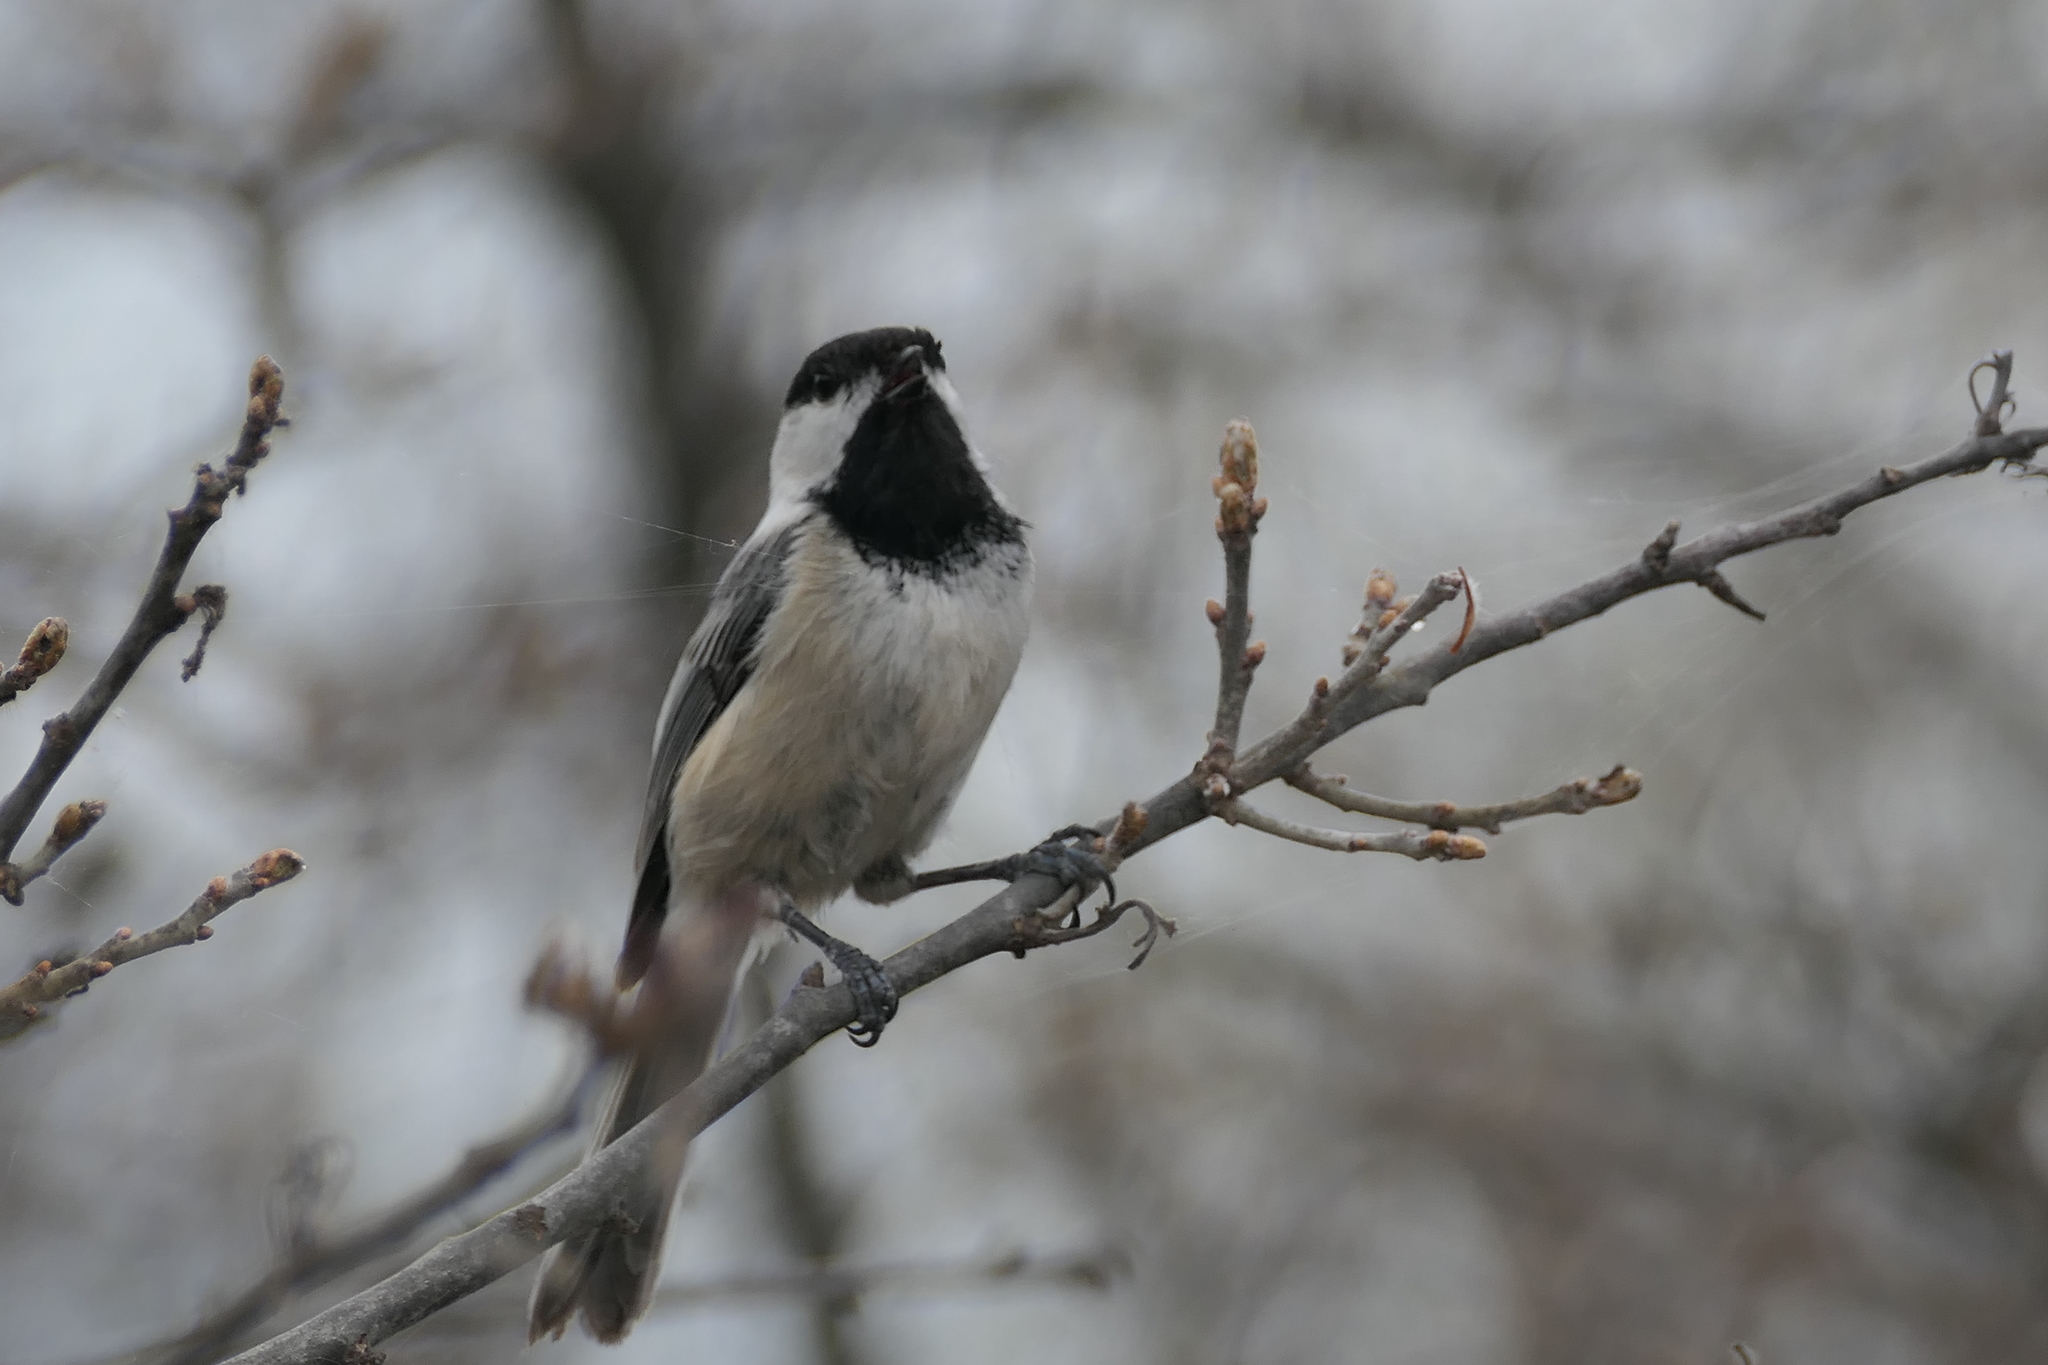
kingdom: Animalia
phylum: Chordata
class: Aves
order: Passeriformes
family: Paridae
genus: Poecile
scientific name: Poecile atricapillus
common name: Black-capped chickadee
